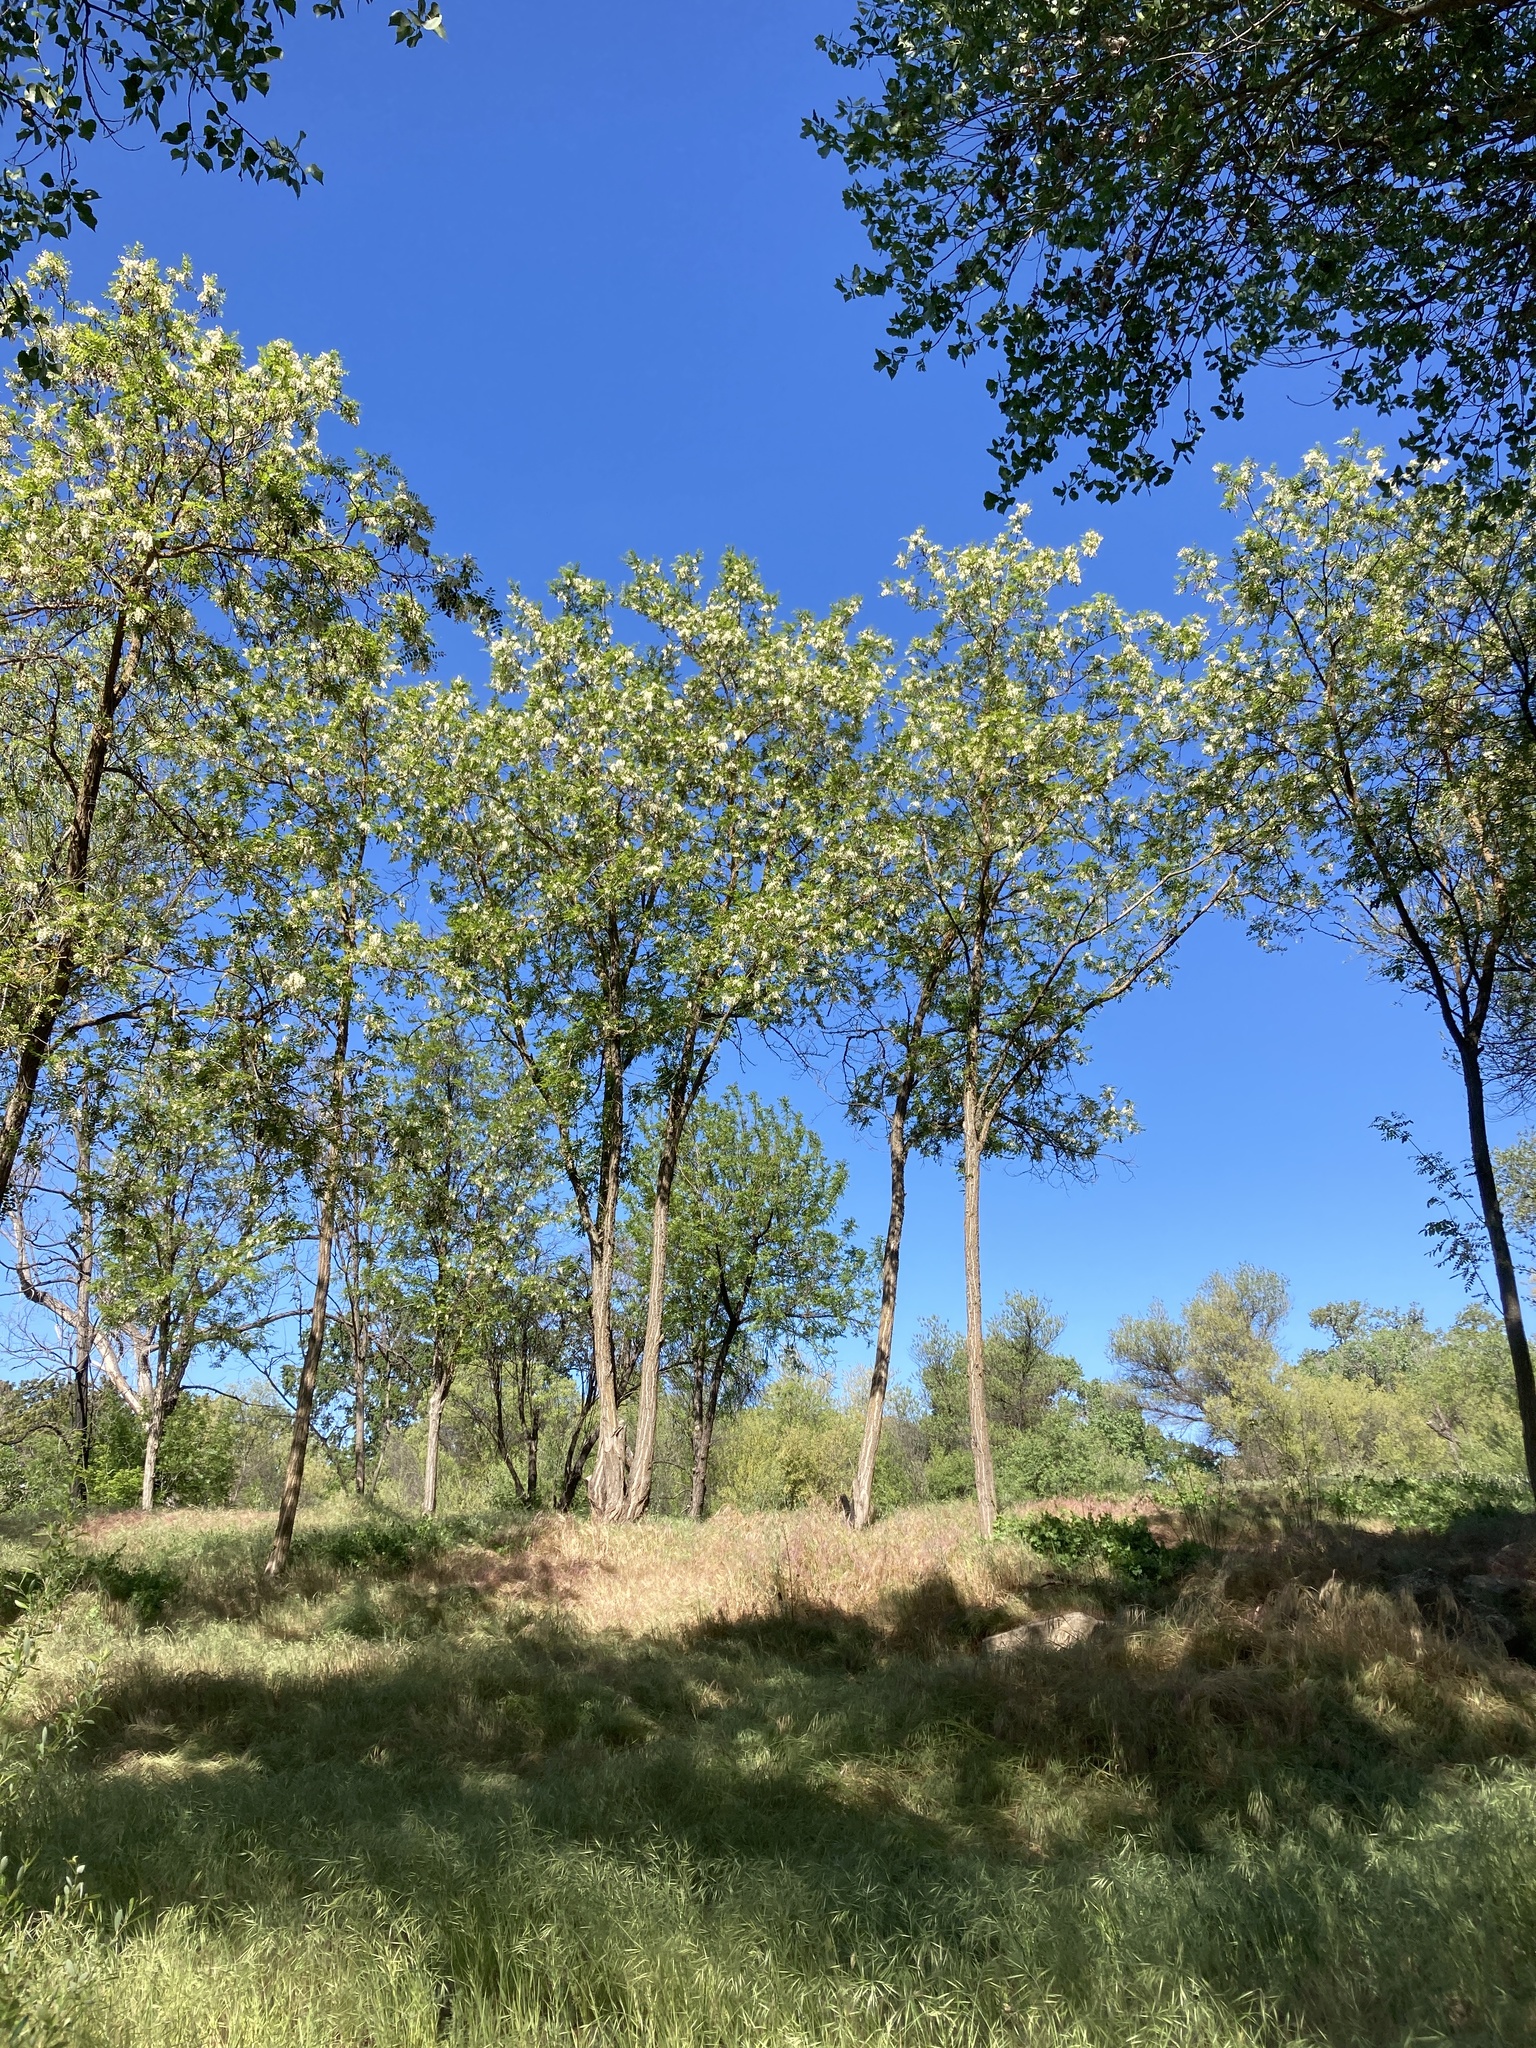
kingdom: Plantae
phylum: Tracheophyta
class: Magnoliopsida
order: Fabales
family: Fabaceae
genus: Robinia
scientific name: Robinia pseudoacacia
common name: Black locust
